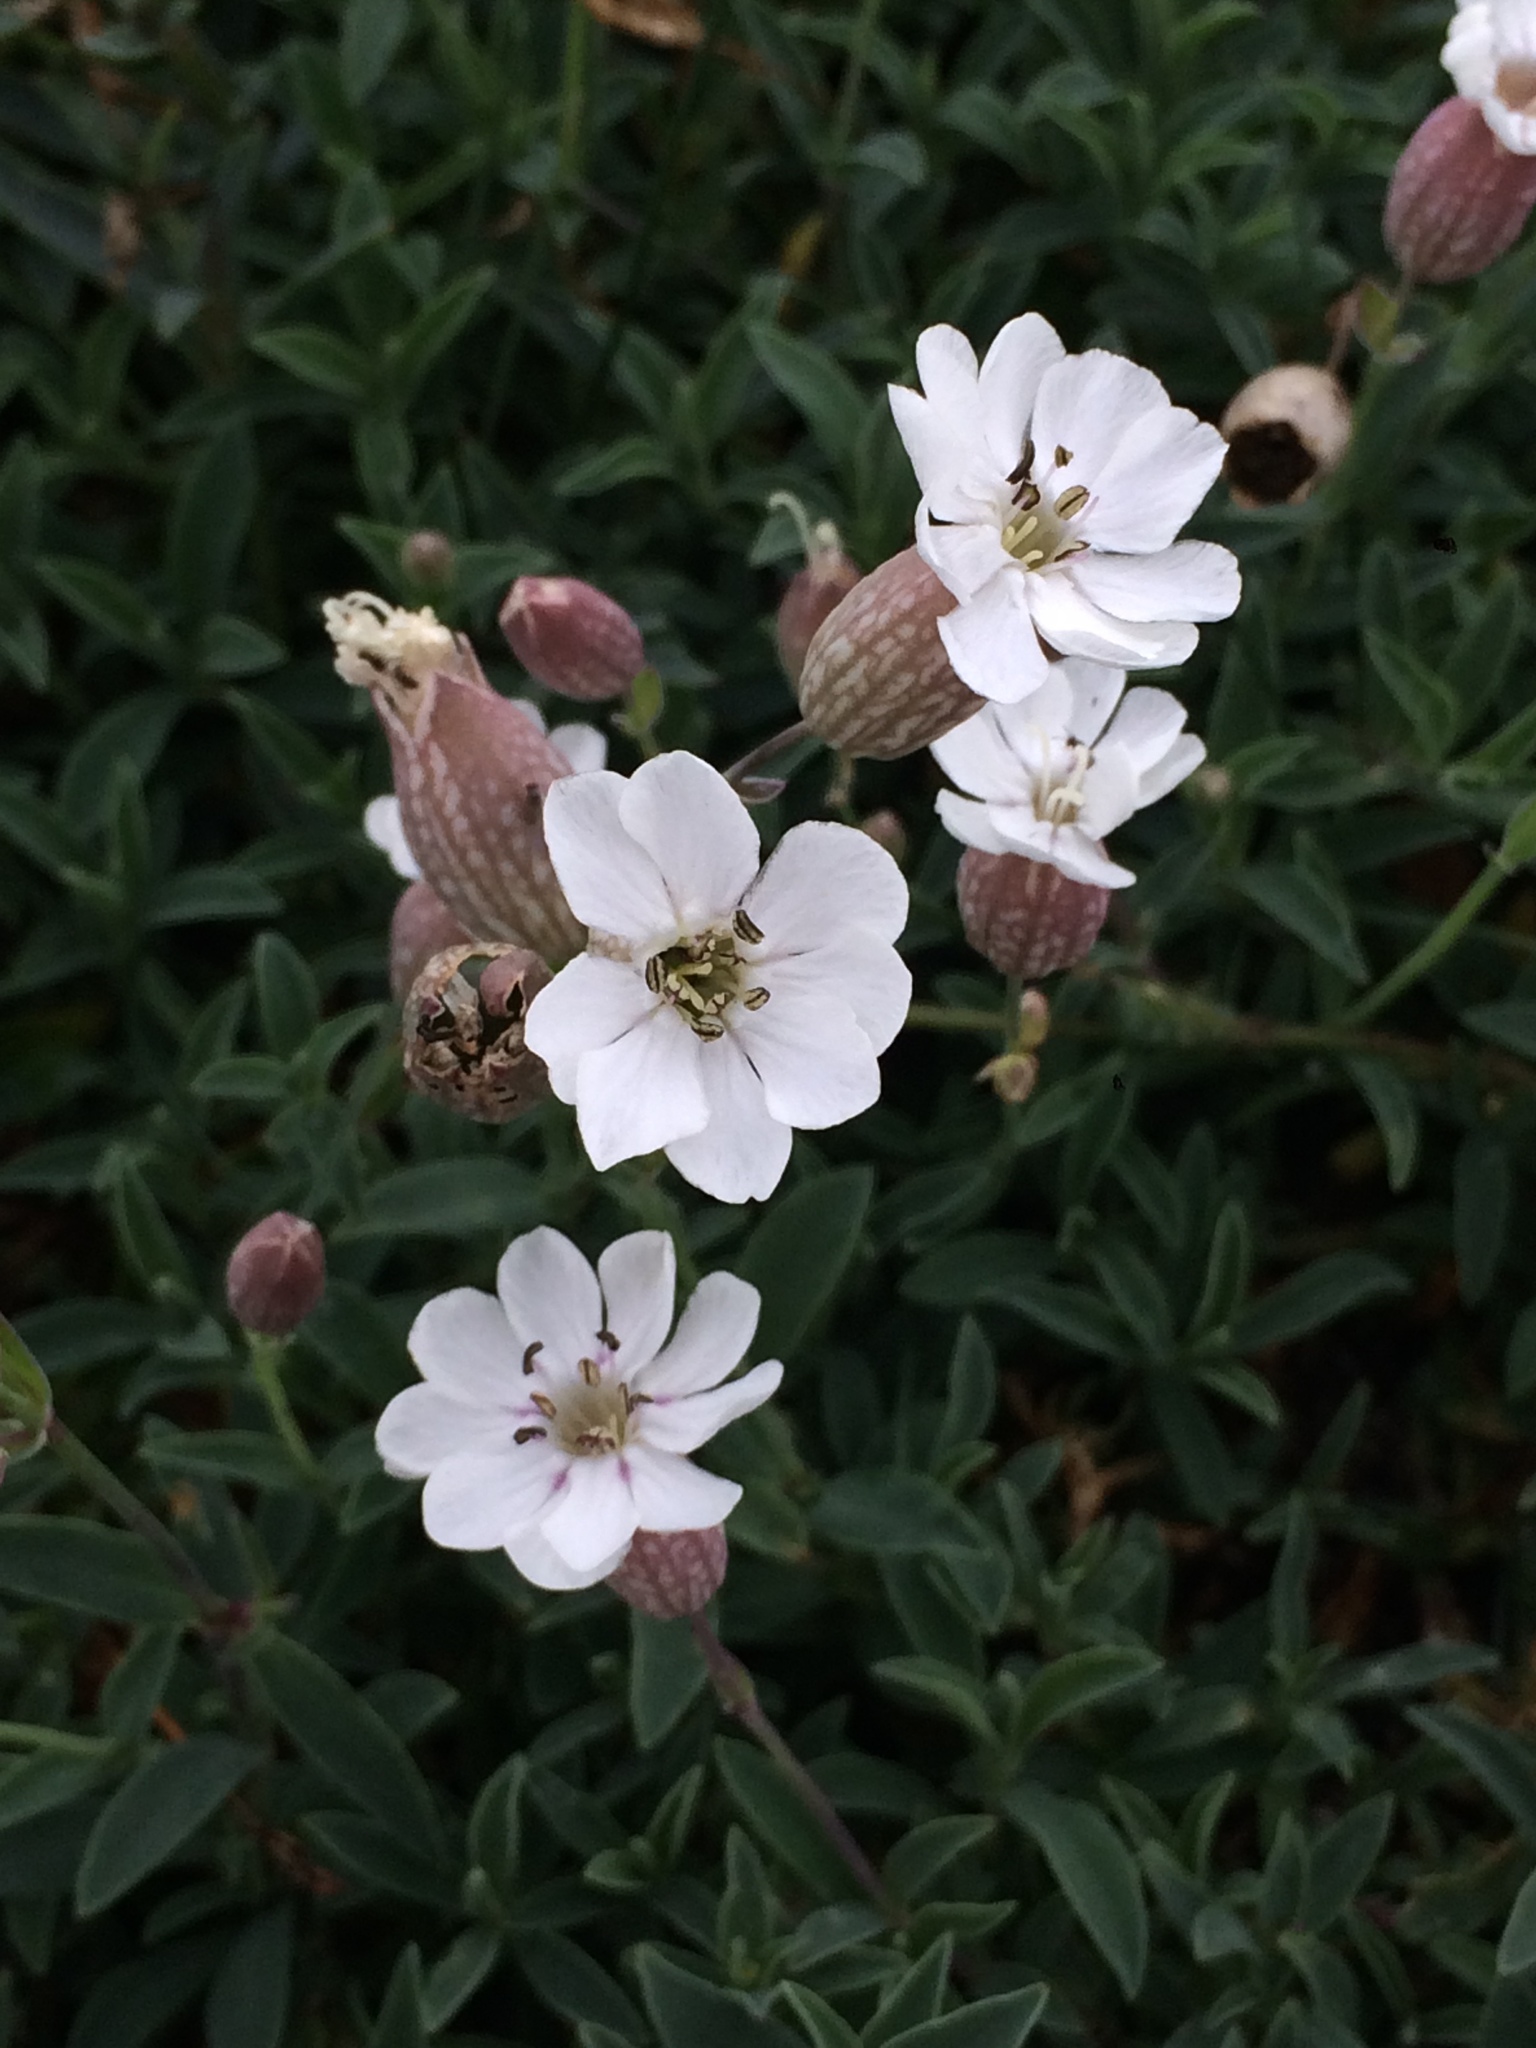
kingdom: Plantae
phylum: Tracheophyta
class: Magnoliopsida
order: Caryophyllales
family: Caryophyllaceae
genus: Silene
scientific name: Silene uniflora
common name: Sea campion
